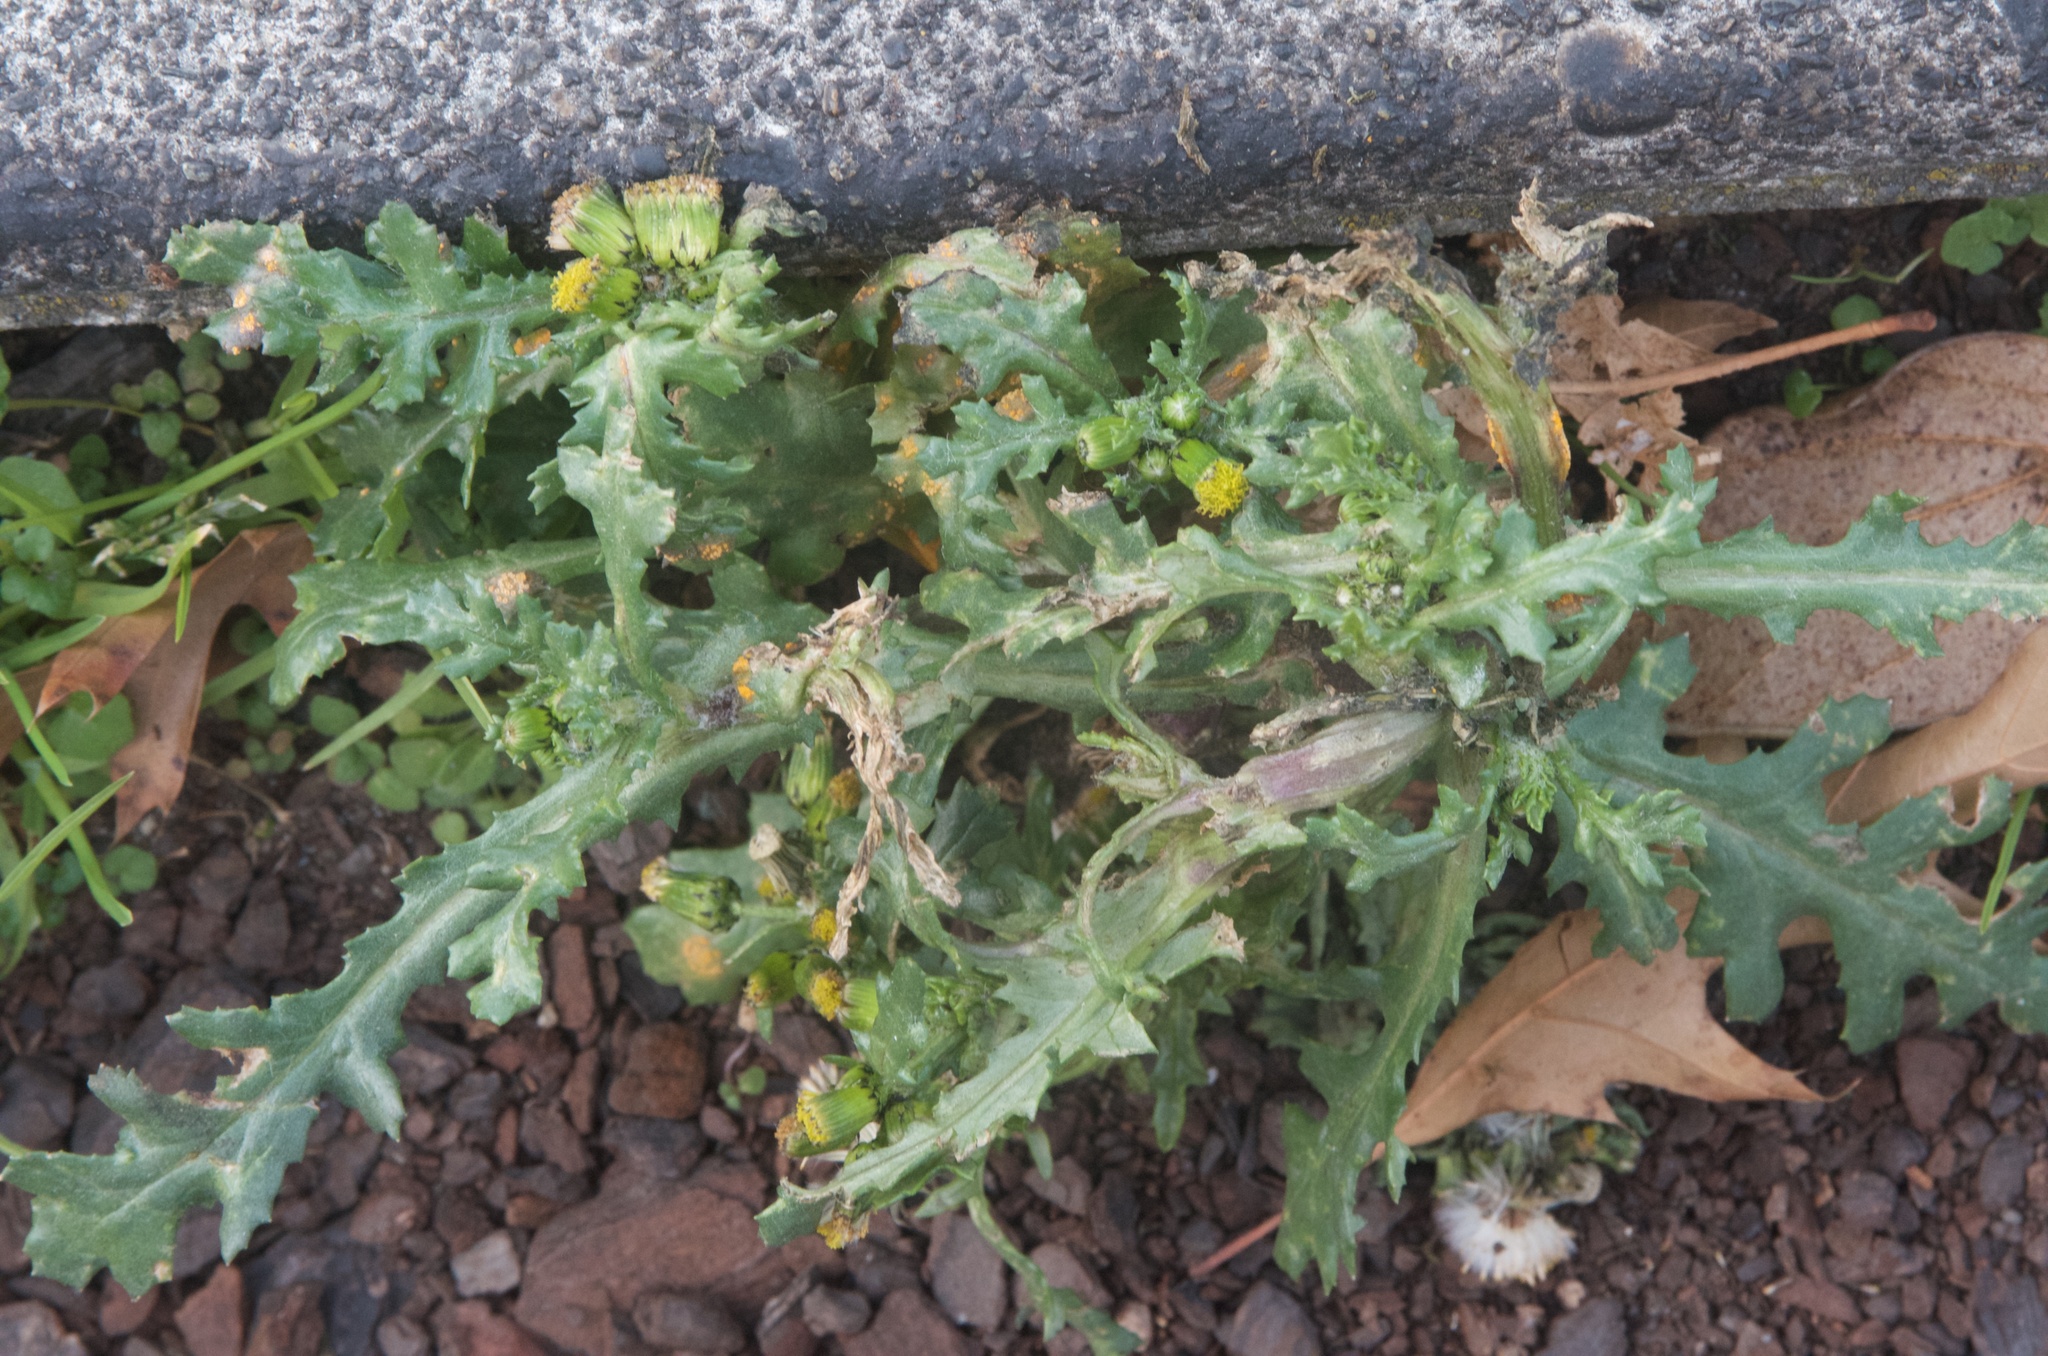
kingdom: Fungi
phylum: Basidiomycota
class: Pucciniomycetes
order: Pucciniales
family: Pucciniaceae
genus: Puccinia
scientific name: Puccinia lagenophorae
